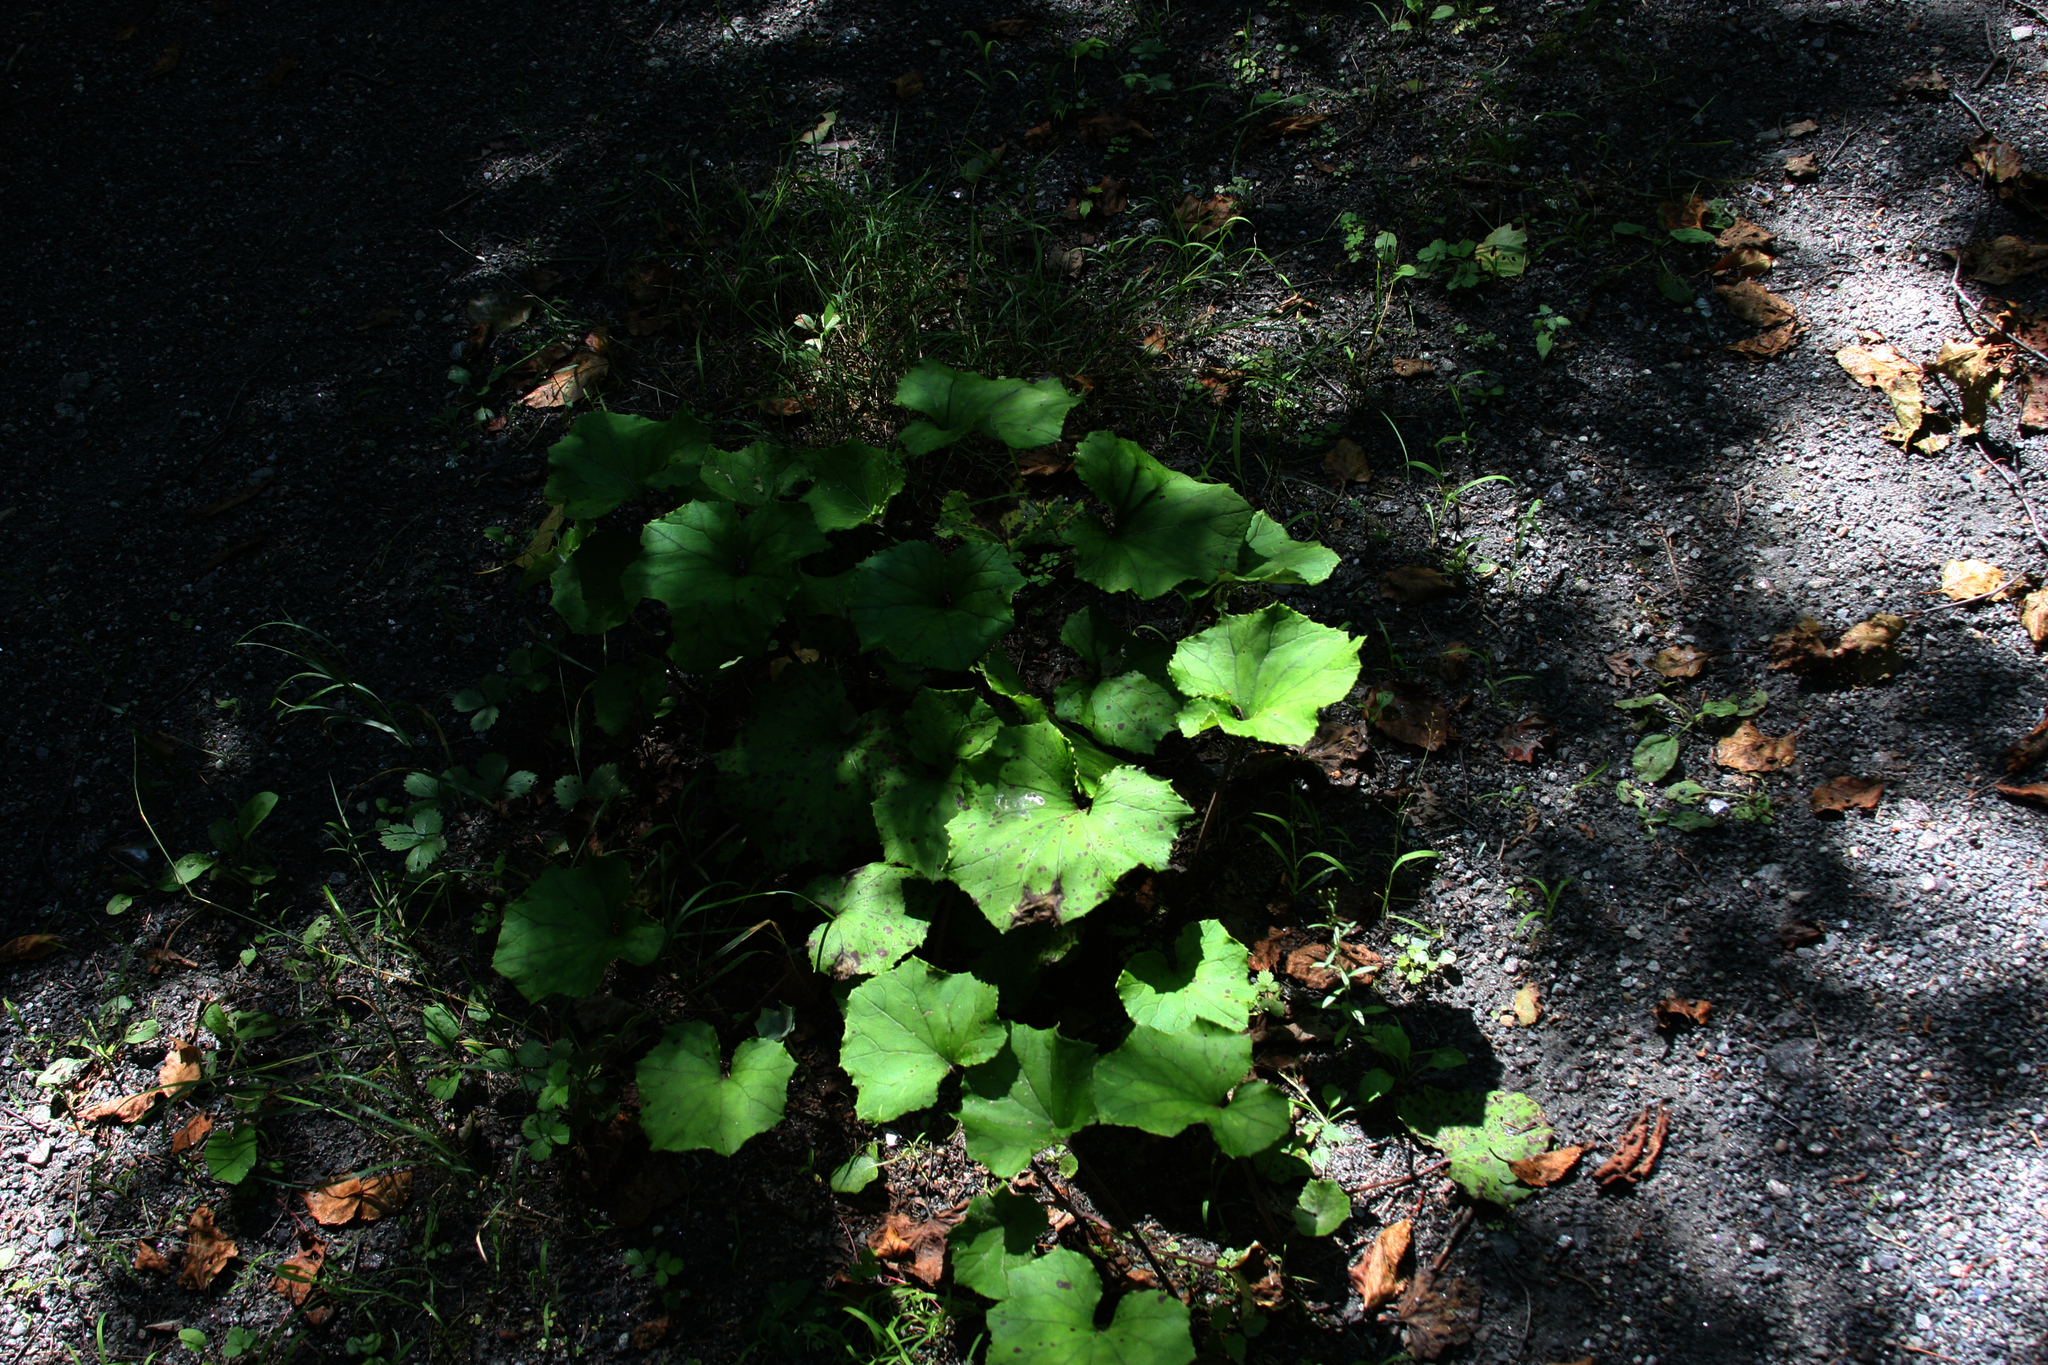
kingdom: Plantae
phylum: Tracheophyta
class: Magnoliopsida
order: Asterales
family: Asteraceae
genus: Tussilago
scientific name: Tussilago farfara
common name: Coltsfoot
